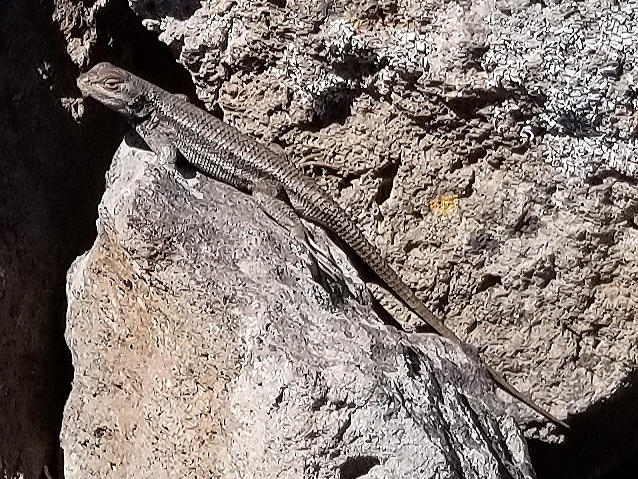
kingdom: Animalia
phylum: Chordata
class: Squamata
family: Phrynosomatidae
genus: Sceloporus
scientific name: Sceloporus tristichus
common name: Plateau fence lizard
